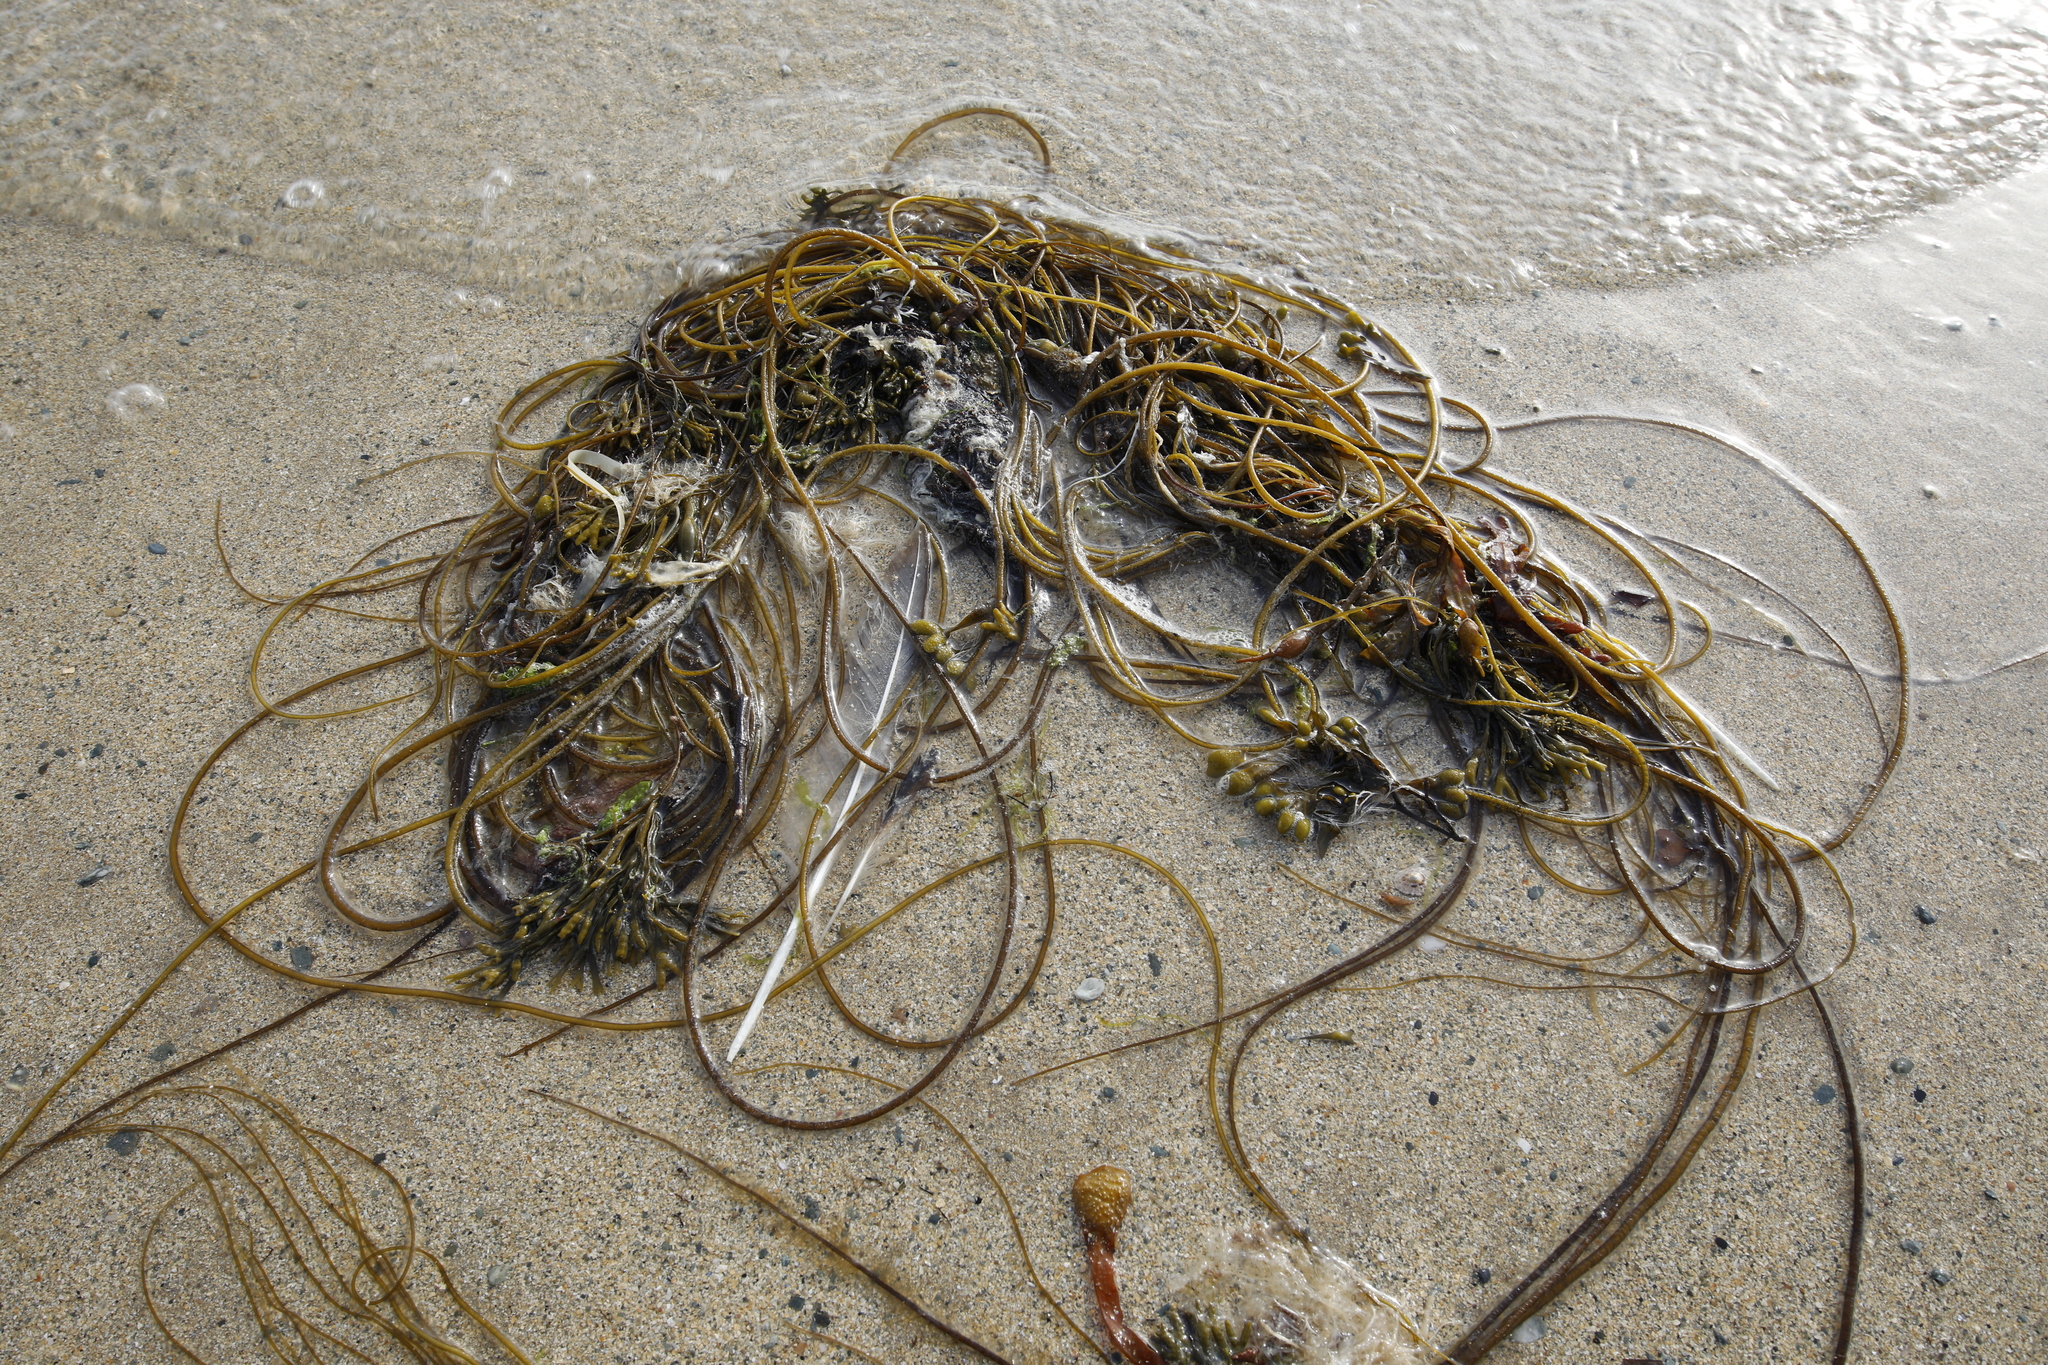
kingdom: Chromista
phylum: Ochrophyta
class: Phaeophyceae
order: Laminariales
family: Chordaceae
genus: Chorda
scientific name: Chorda filum
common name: Mermaid's tresses
